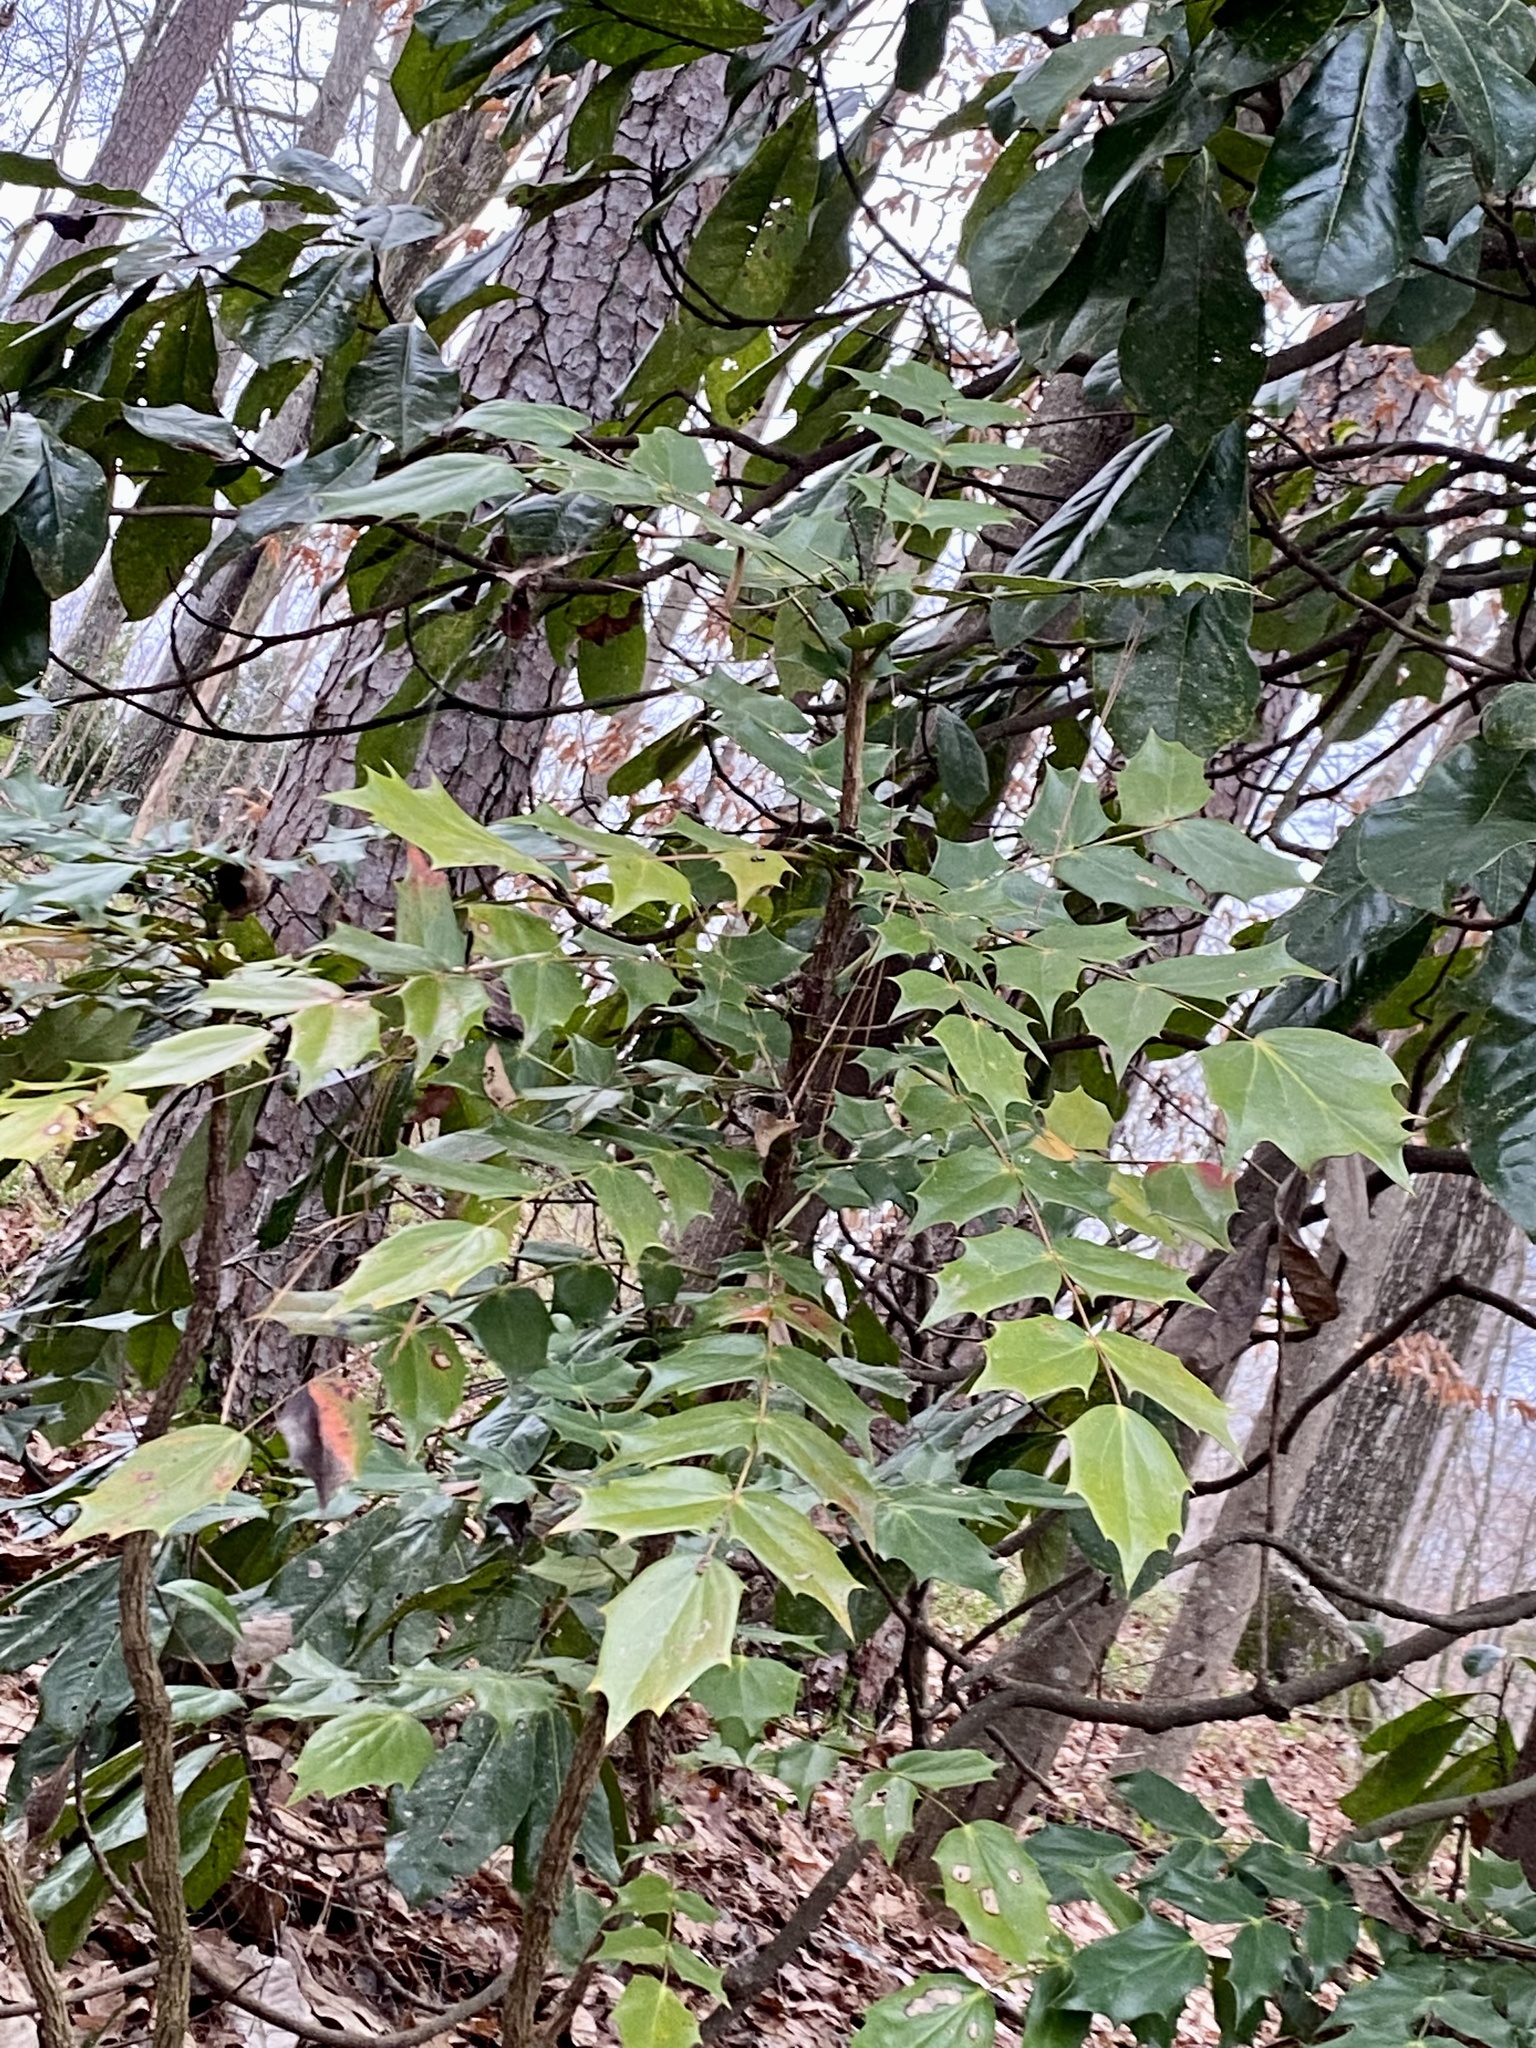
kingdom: Plantae
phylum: Tracheophyta
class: Magnoliopsida
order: Ranunculales
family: Berberidaceae
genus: Mahonia
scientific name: Mahonia bealei
